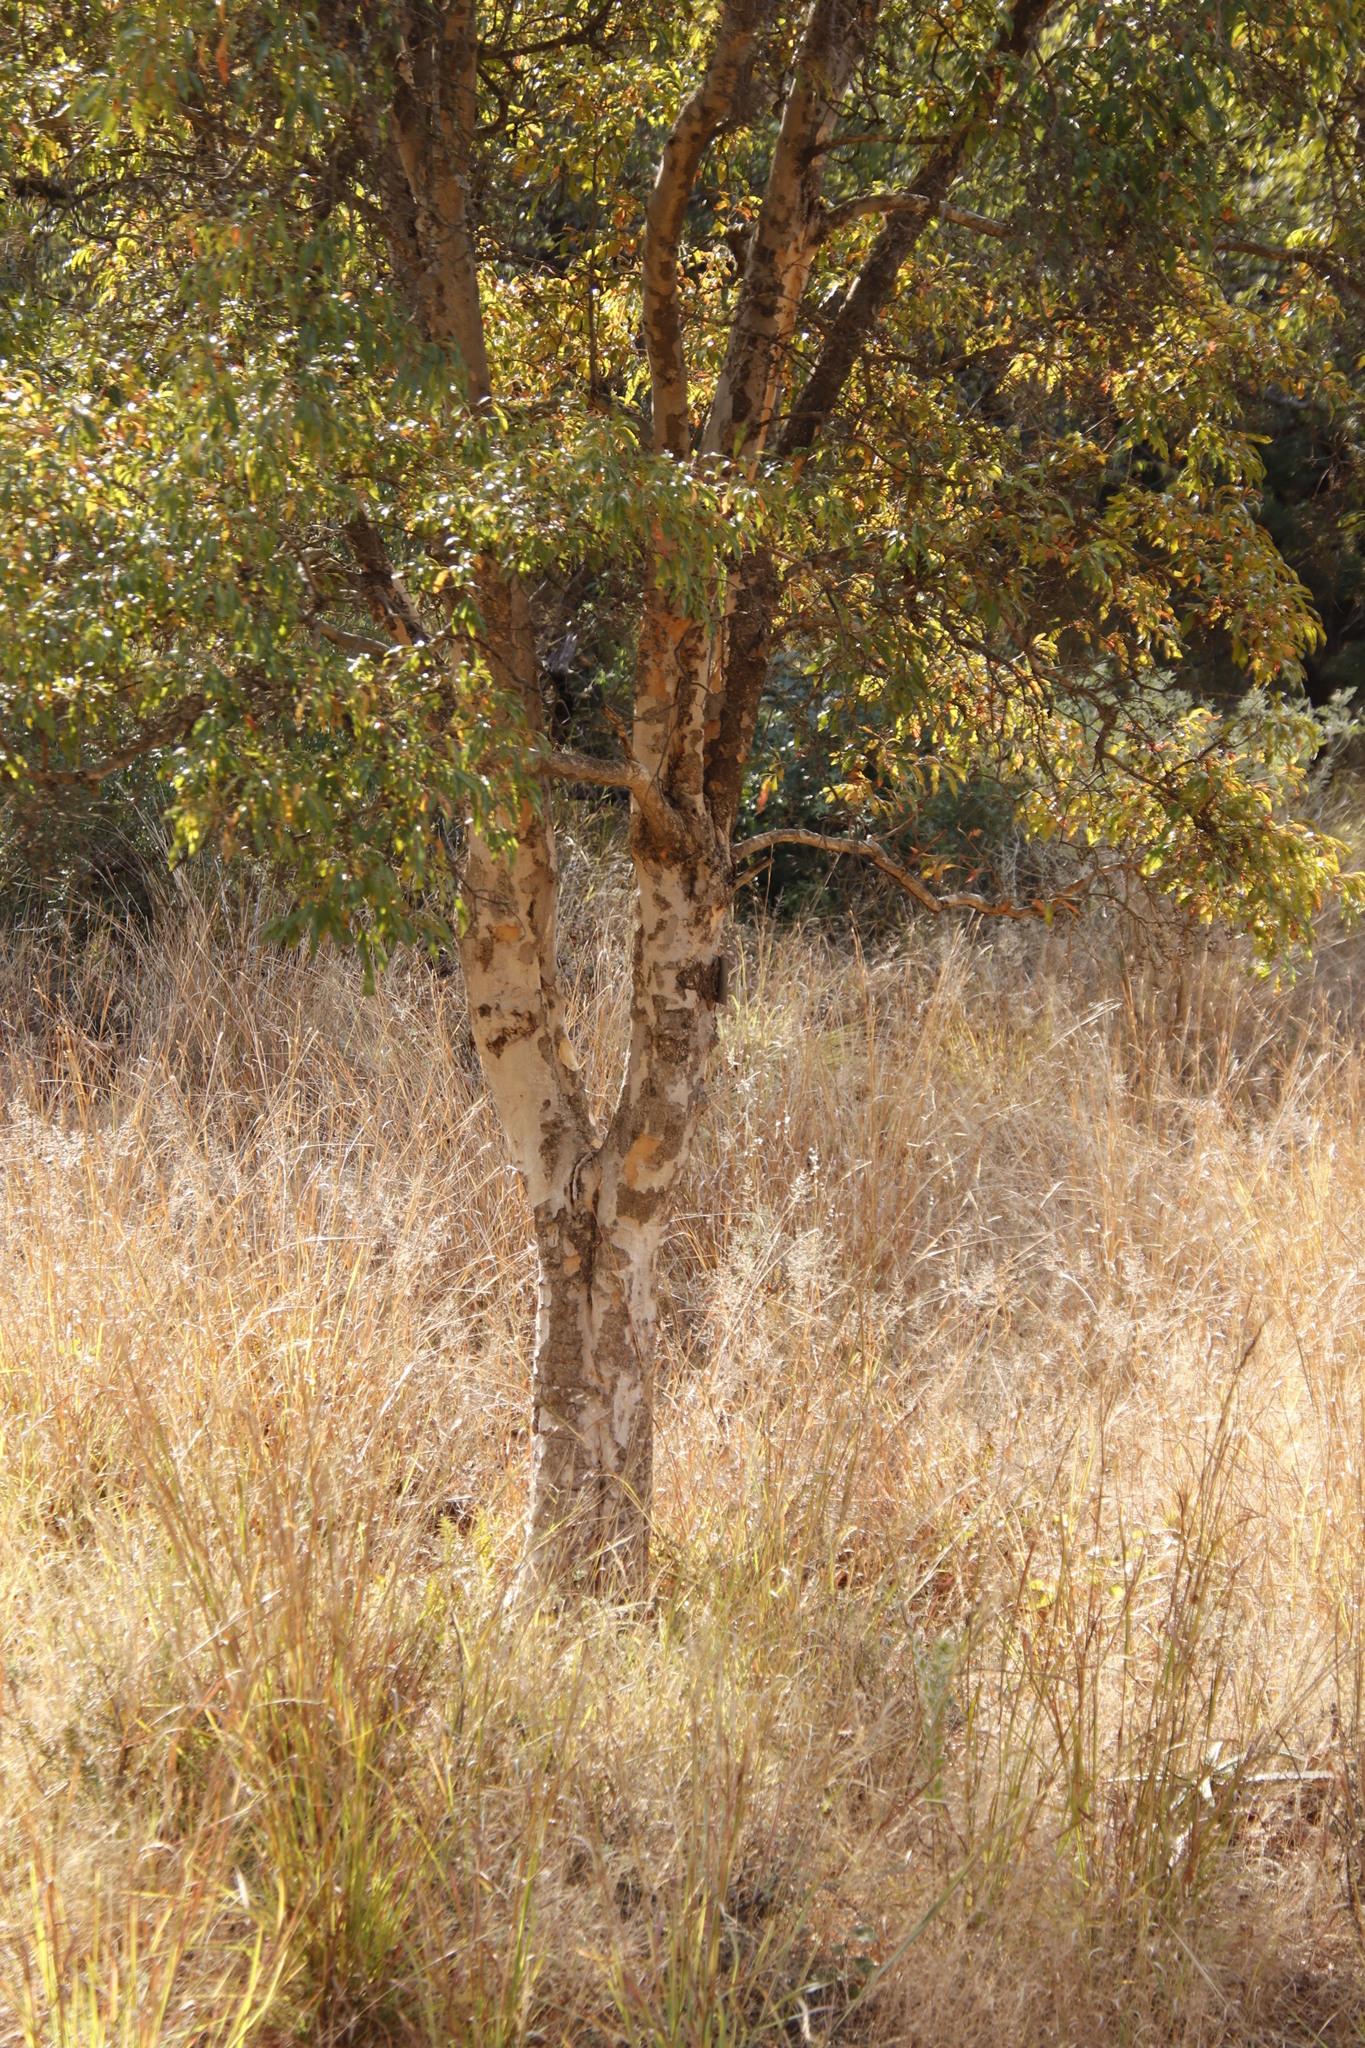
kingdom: Plantae
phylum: Tracheophyta
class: Magnoliopsida
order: Myrtales
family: Myrtaceae
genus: Heteropyxis
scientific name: Heteropyxis natalensis
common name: Lavender tree
